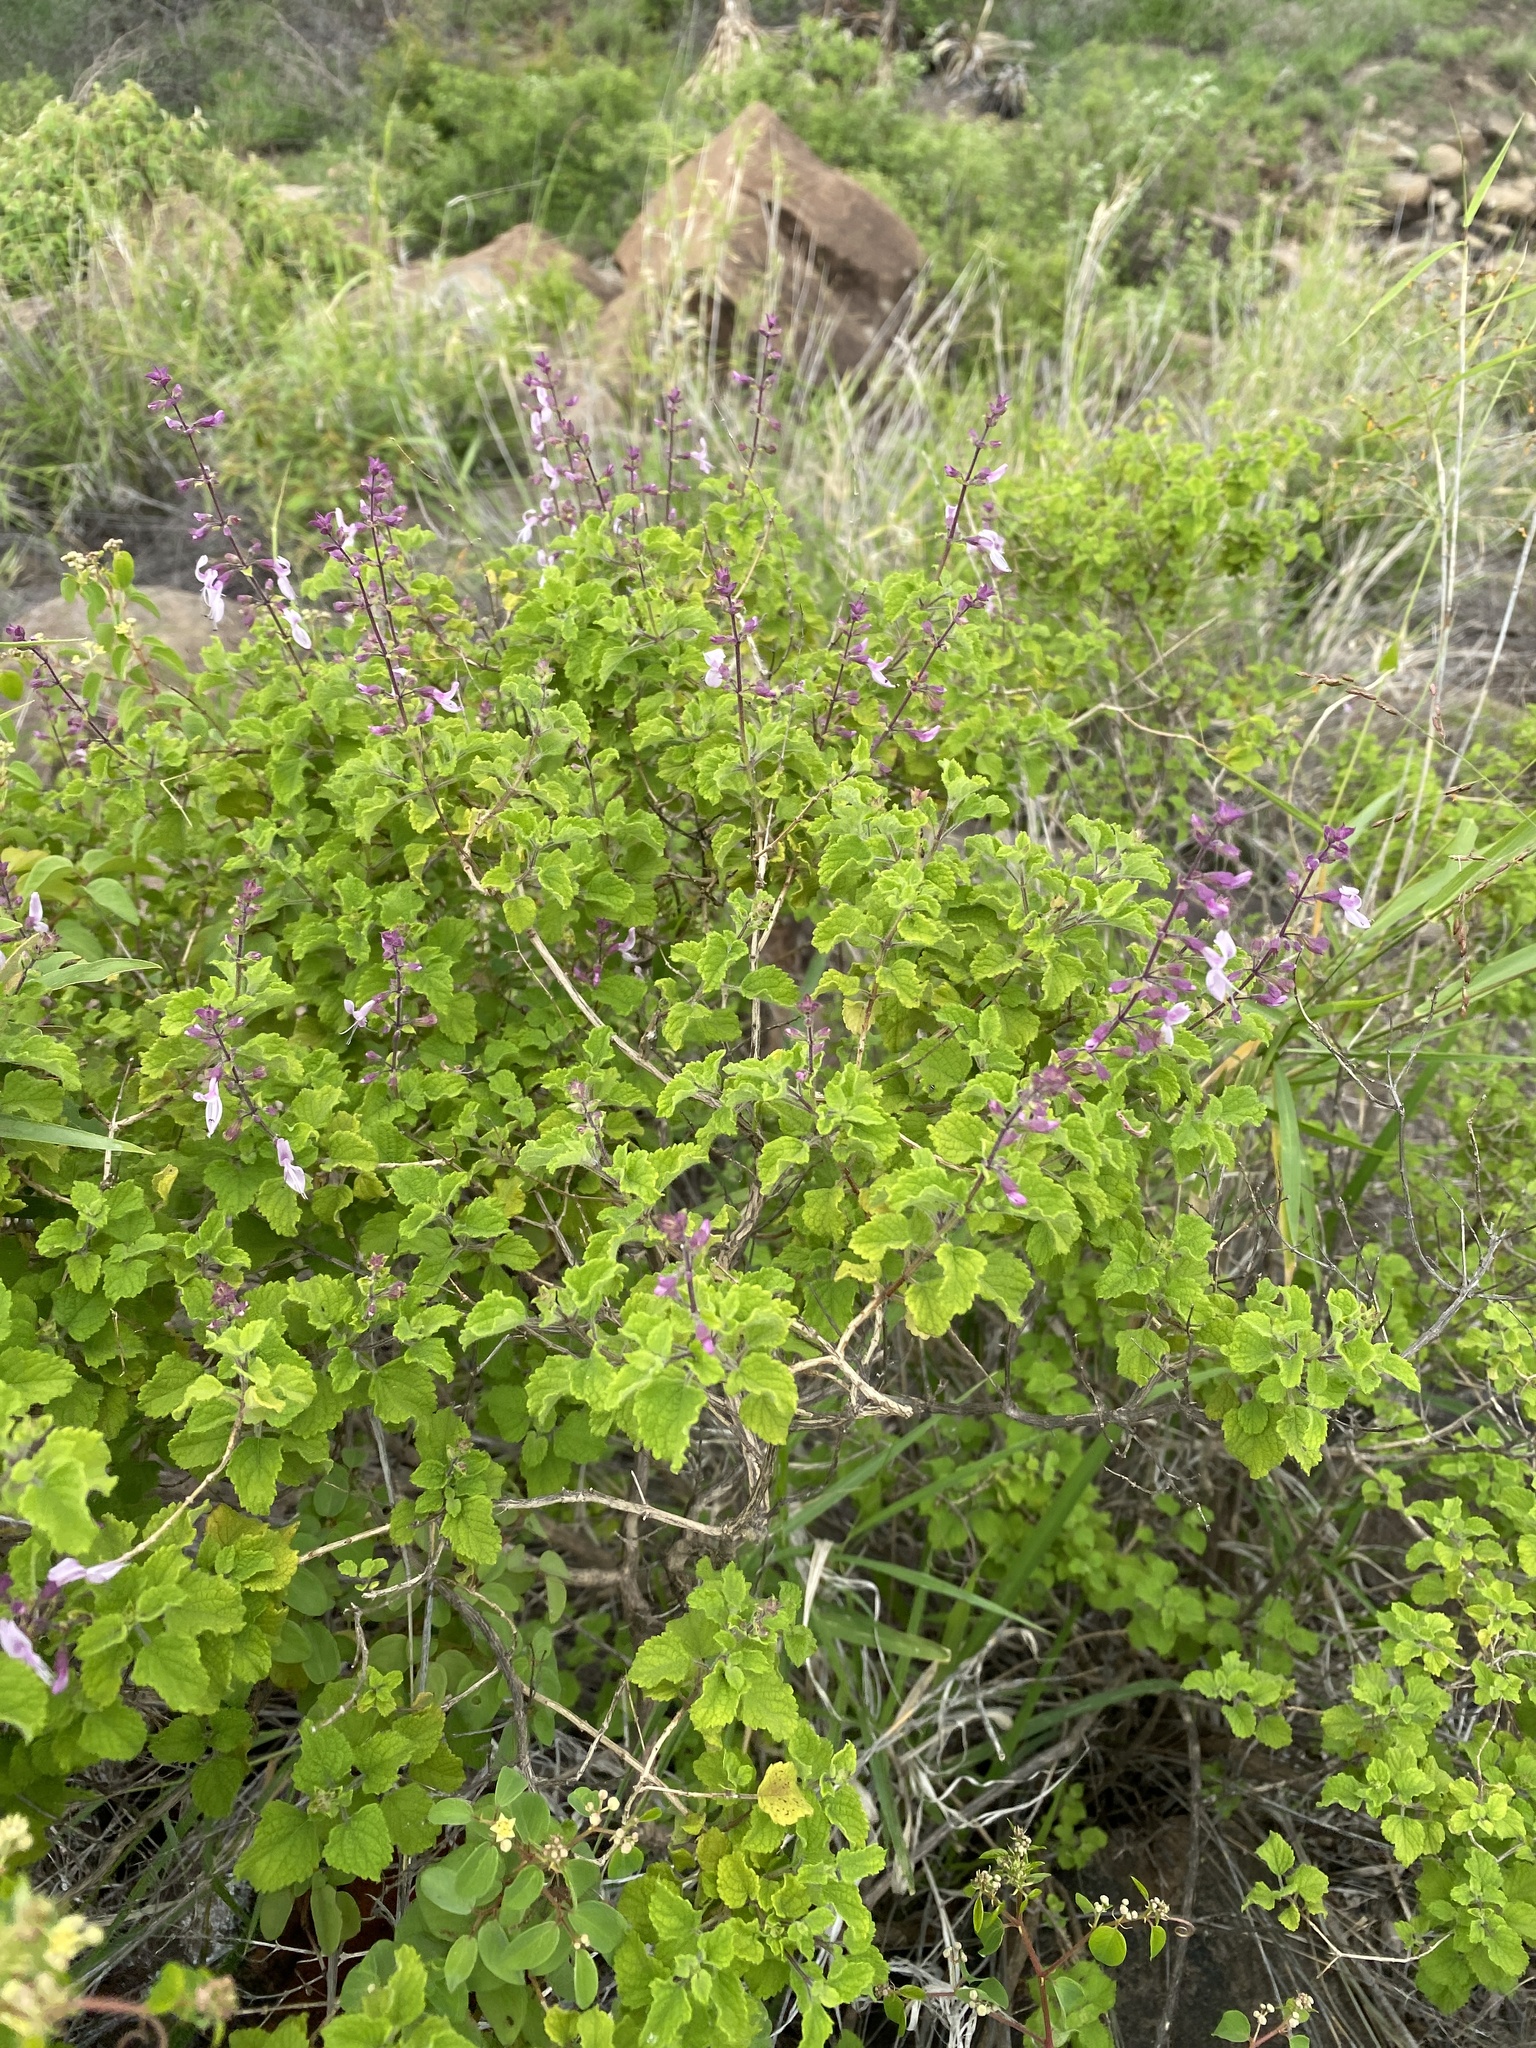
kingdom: Plantae
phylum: Tracheophyta
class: Magnoliopsida
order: Lamiales
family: Lamiaceae
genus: Plectranthus
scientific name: Plectranthus fruticosus
